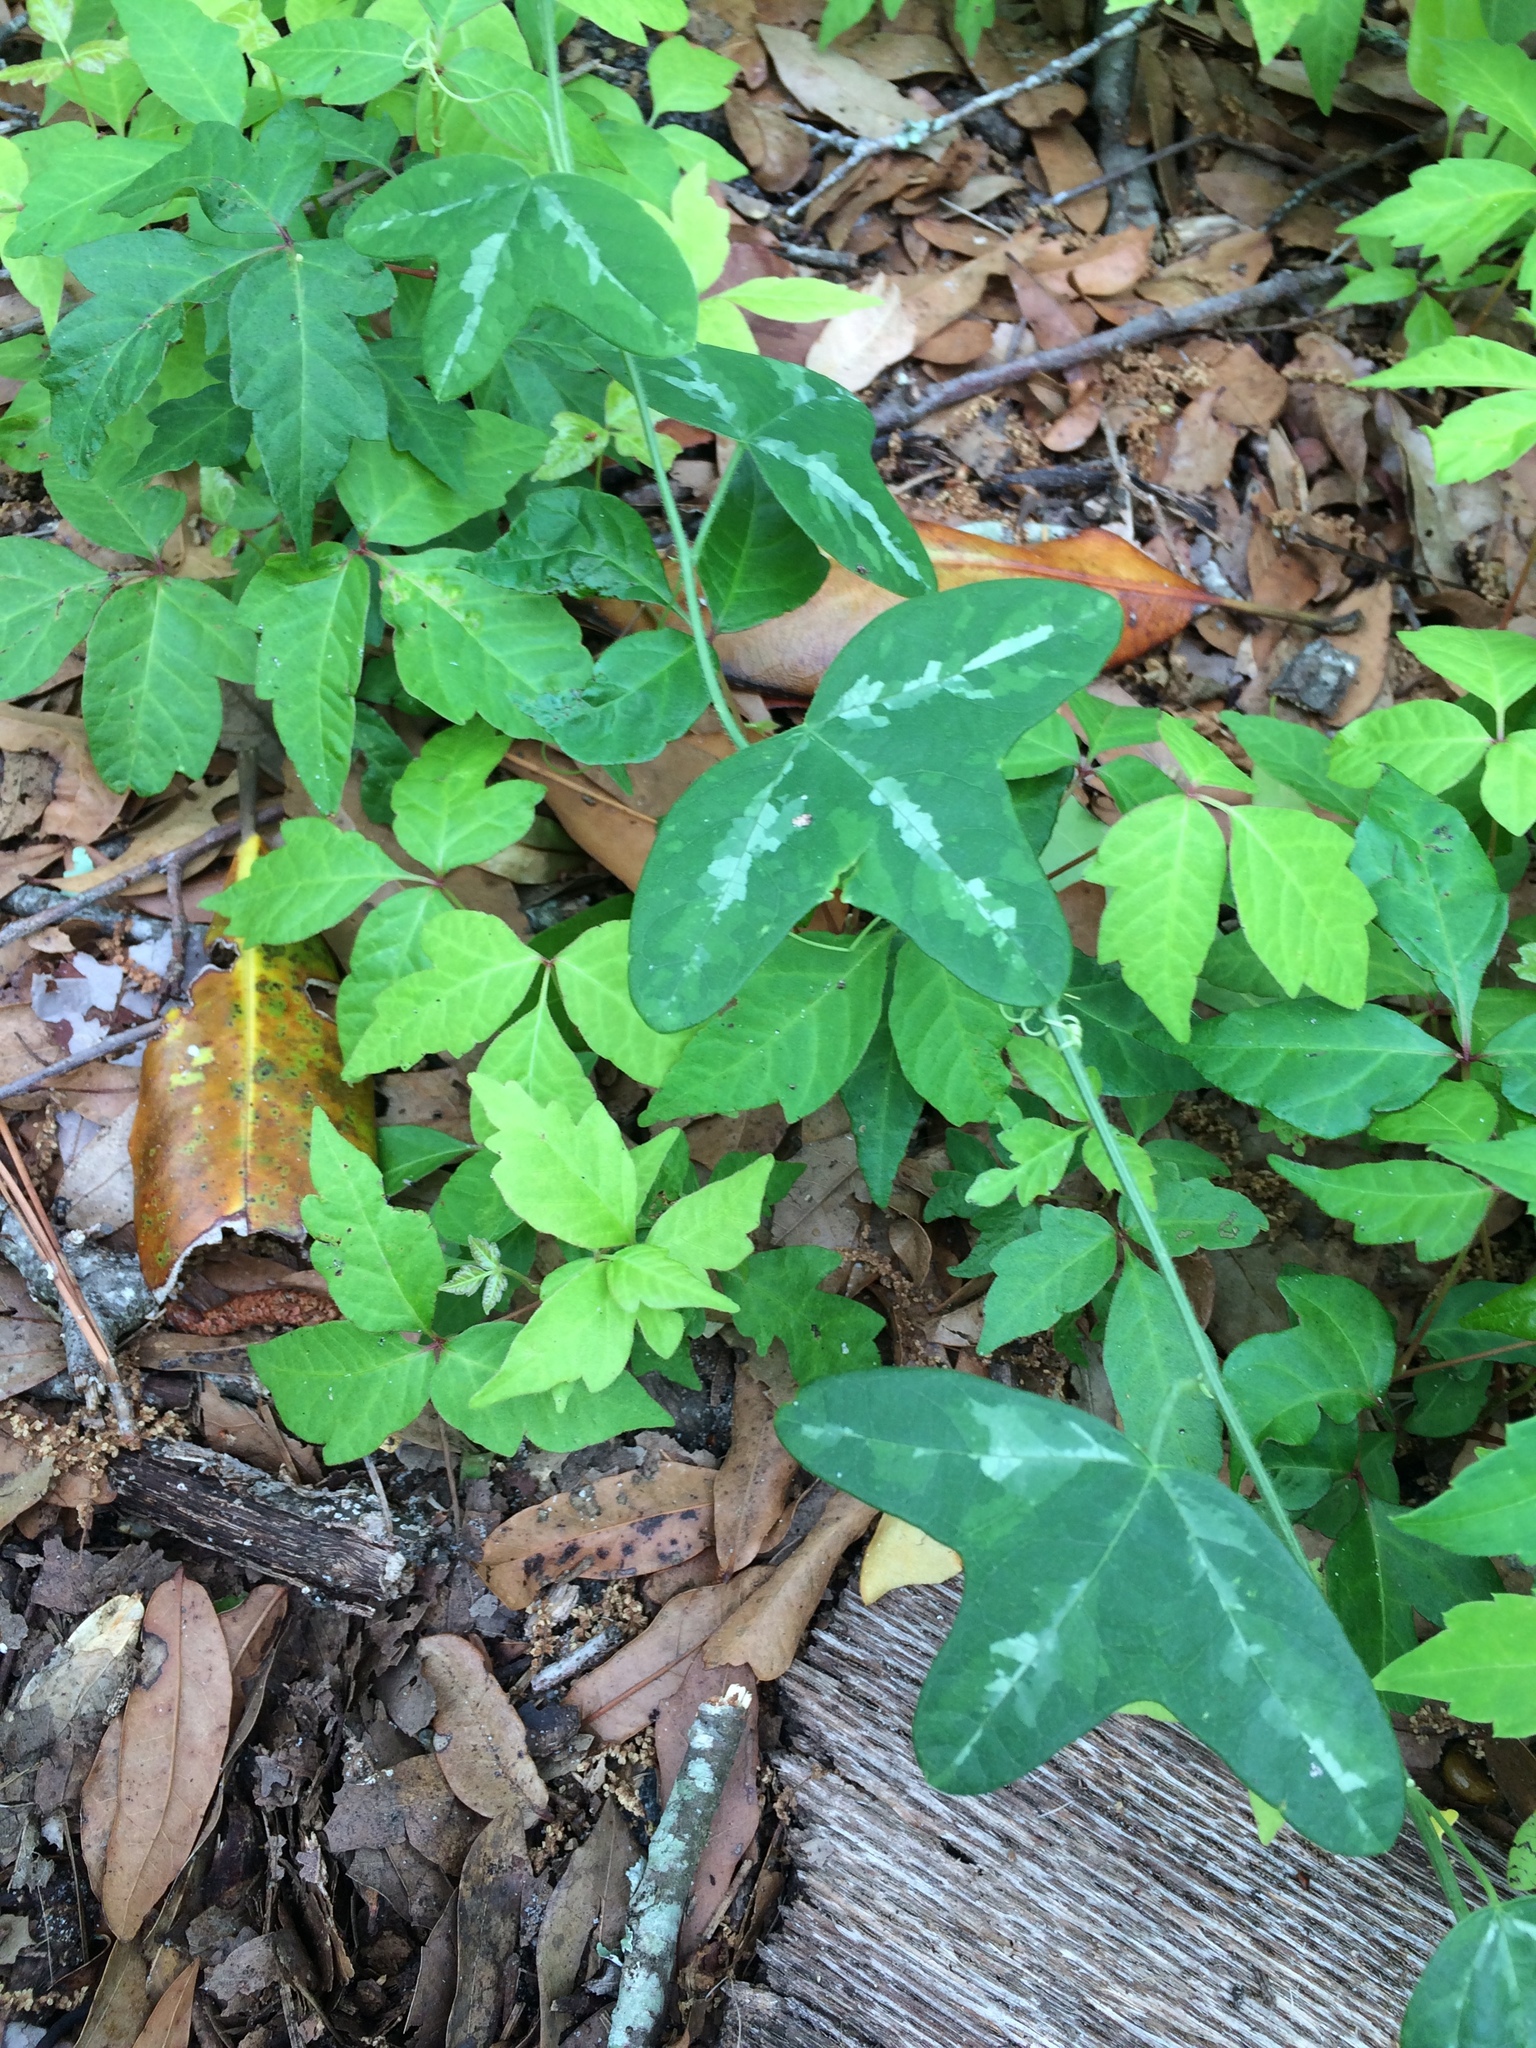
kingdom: Plantae
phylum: Tracheophyta
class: Magnoliopsida
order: Malpighiales
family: Passifloraceae
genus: Passiflora
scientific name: Passiflora lutea
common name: Yellow passionflower
